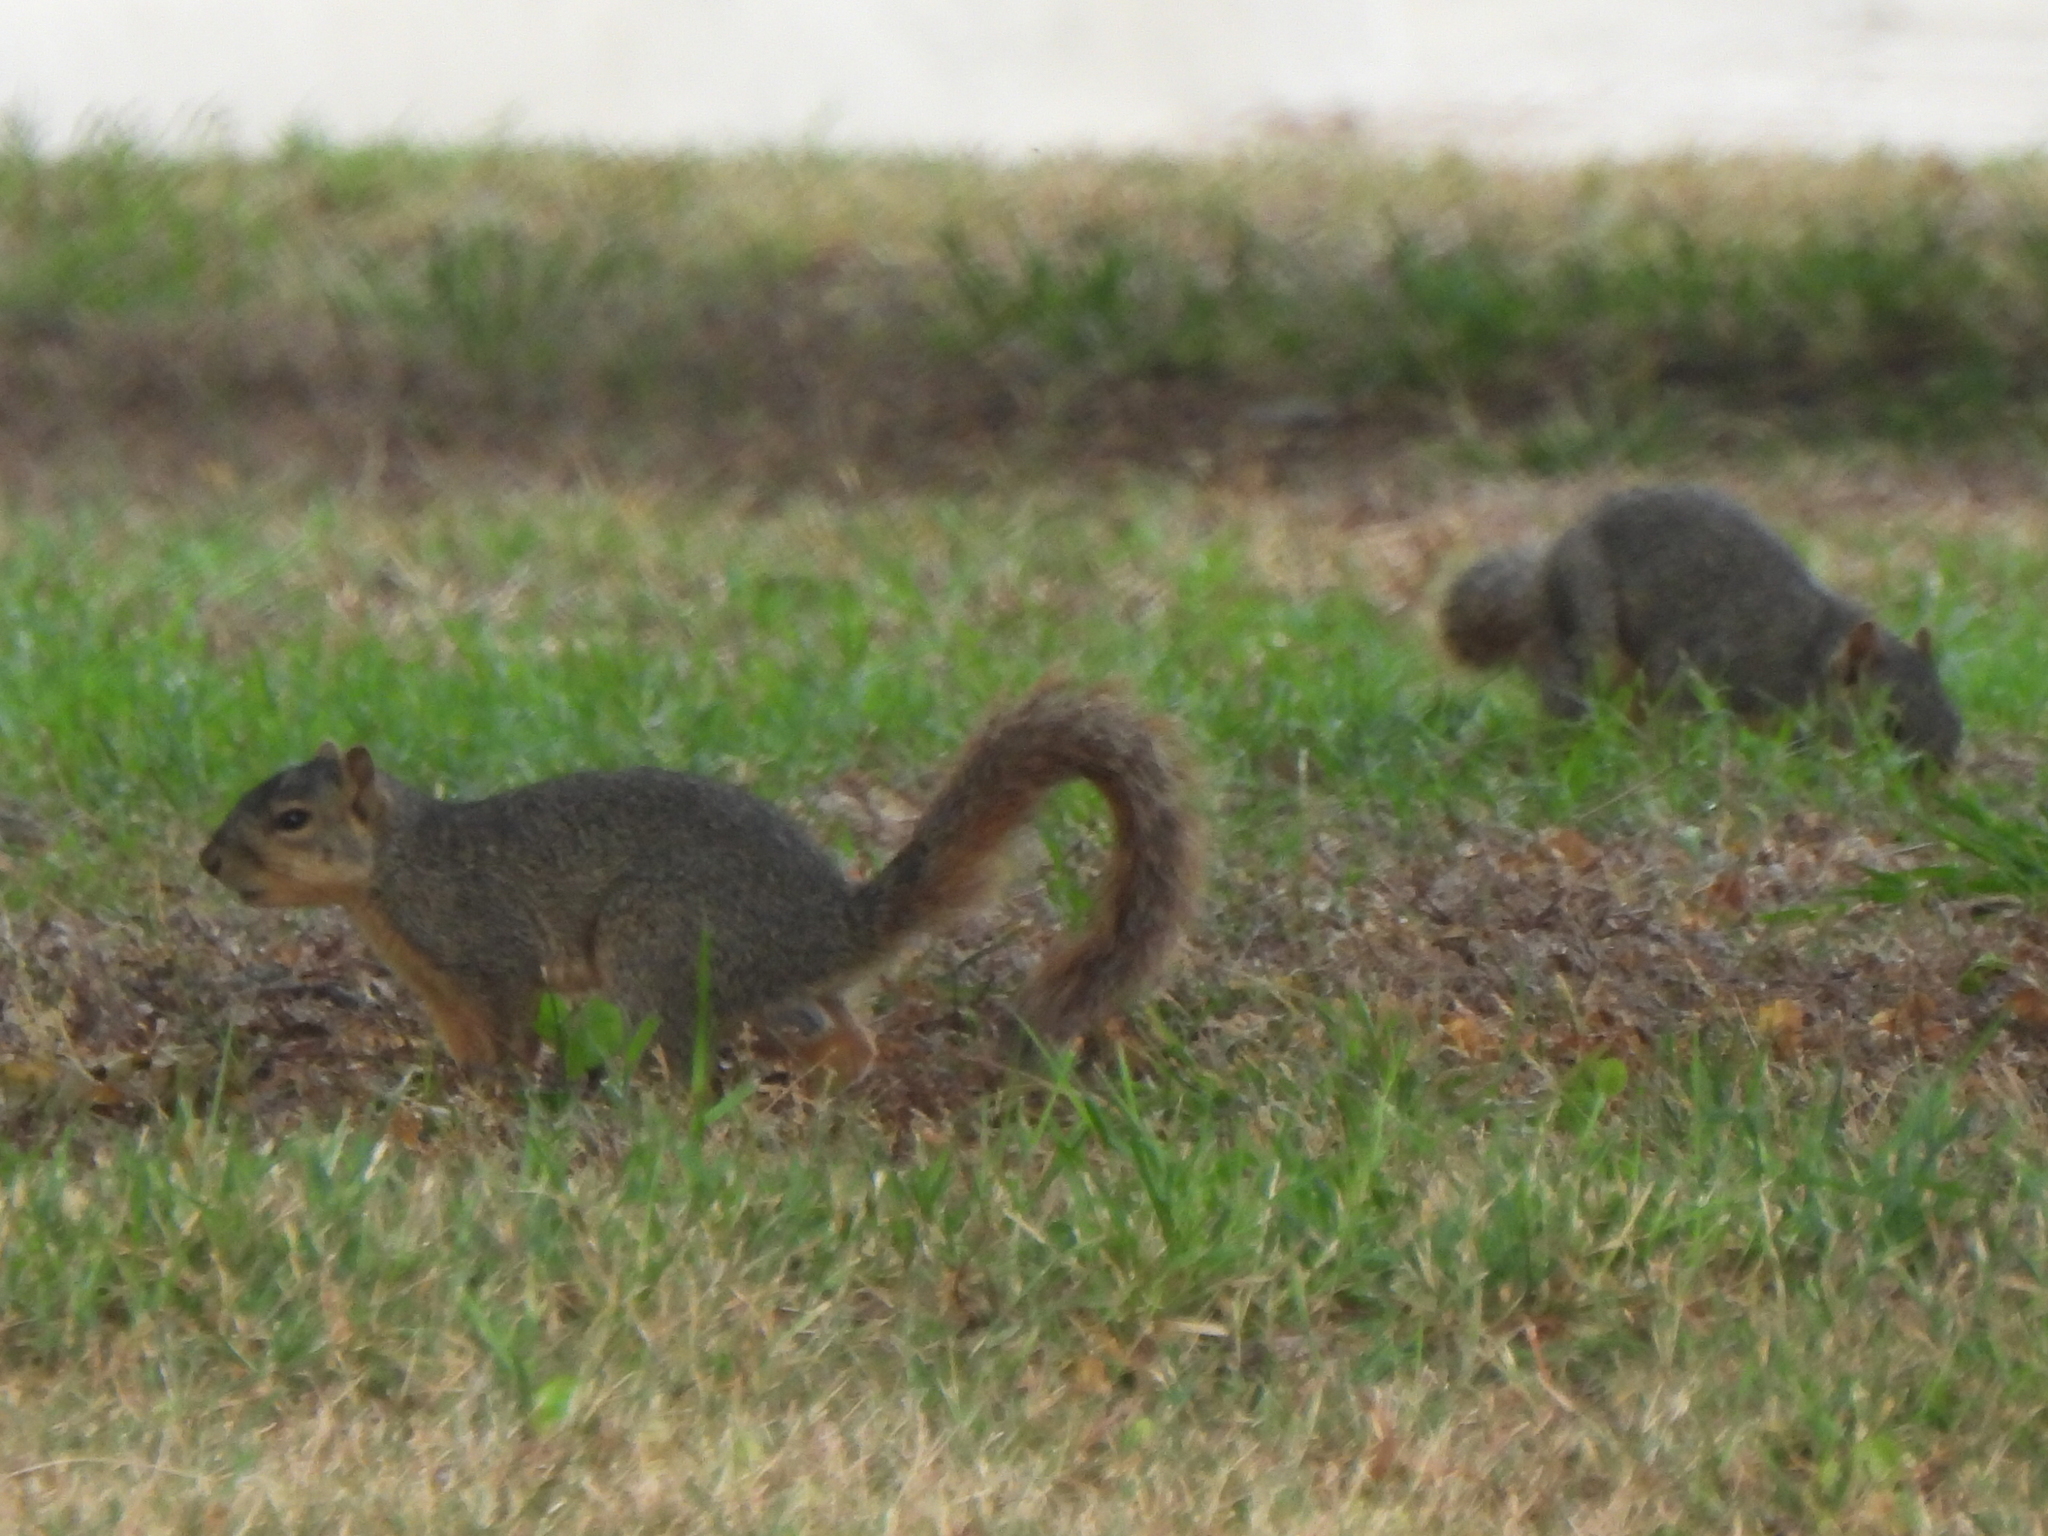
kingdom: Animalia
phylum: Chordata
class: Mammalia
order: Rodentia
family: Sciuridae
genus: Sciurus
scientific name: Sciurus niger
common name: Fox squirrel
